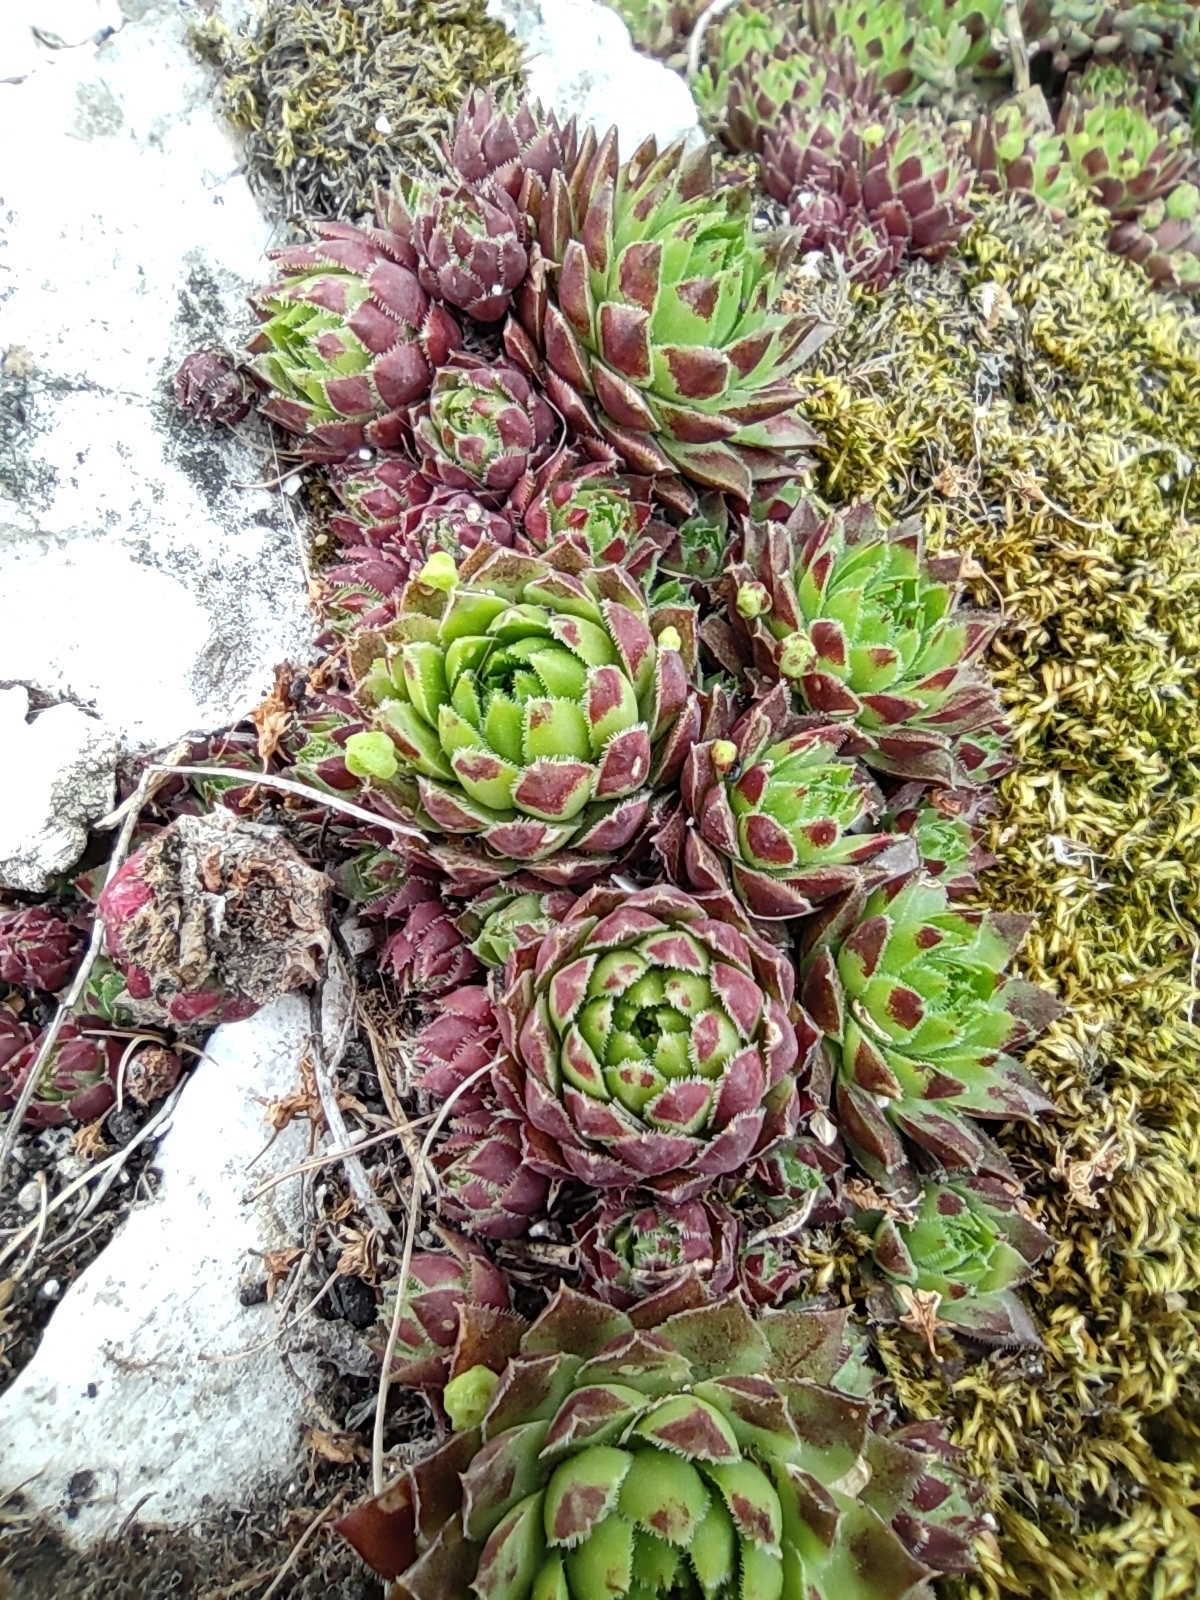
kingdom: Plantae
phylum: Tracheophyta
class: Magnoliopsida
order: Saxifragales
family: Crassulaceae
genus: Sempervivum
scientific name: Sempervivum globiferum
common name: Rolling hen-and-chicks
